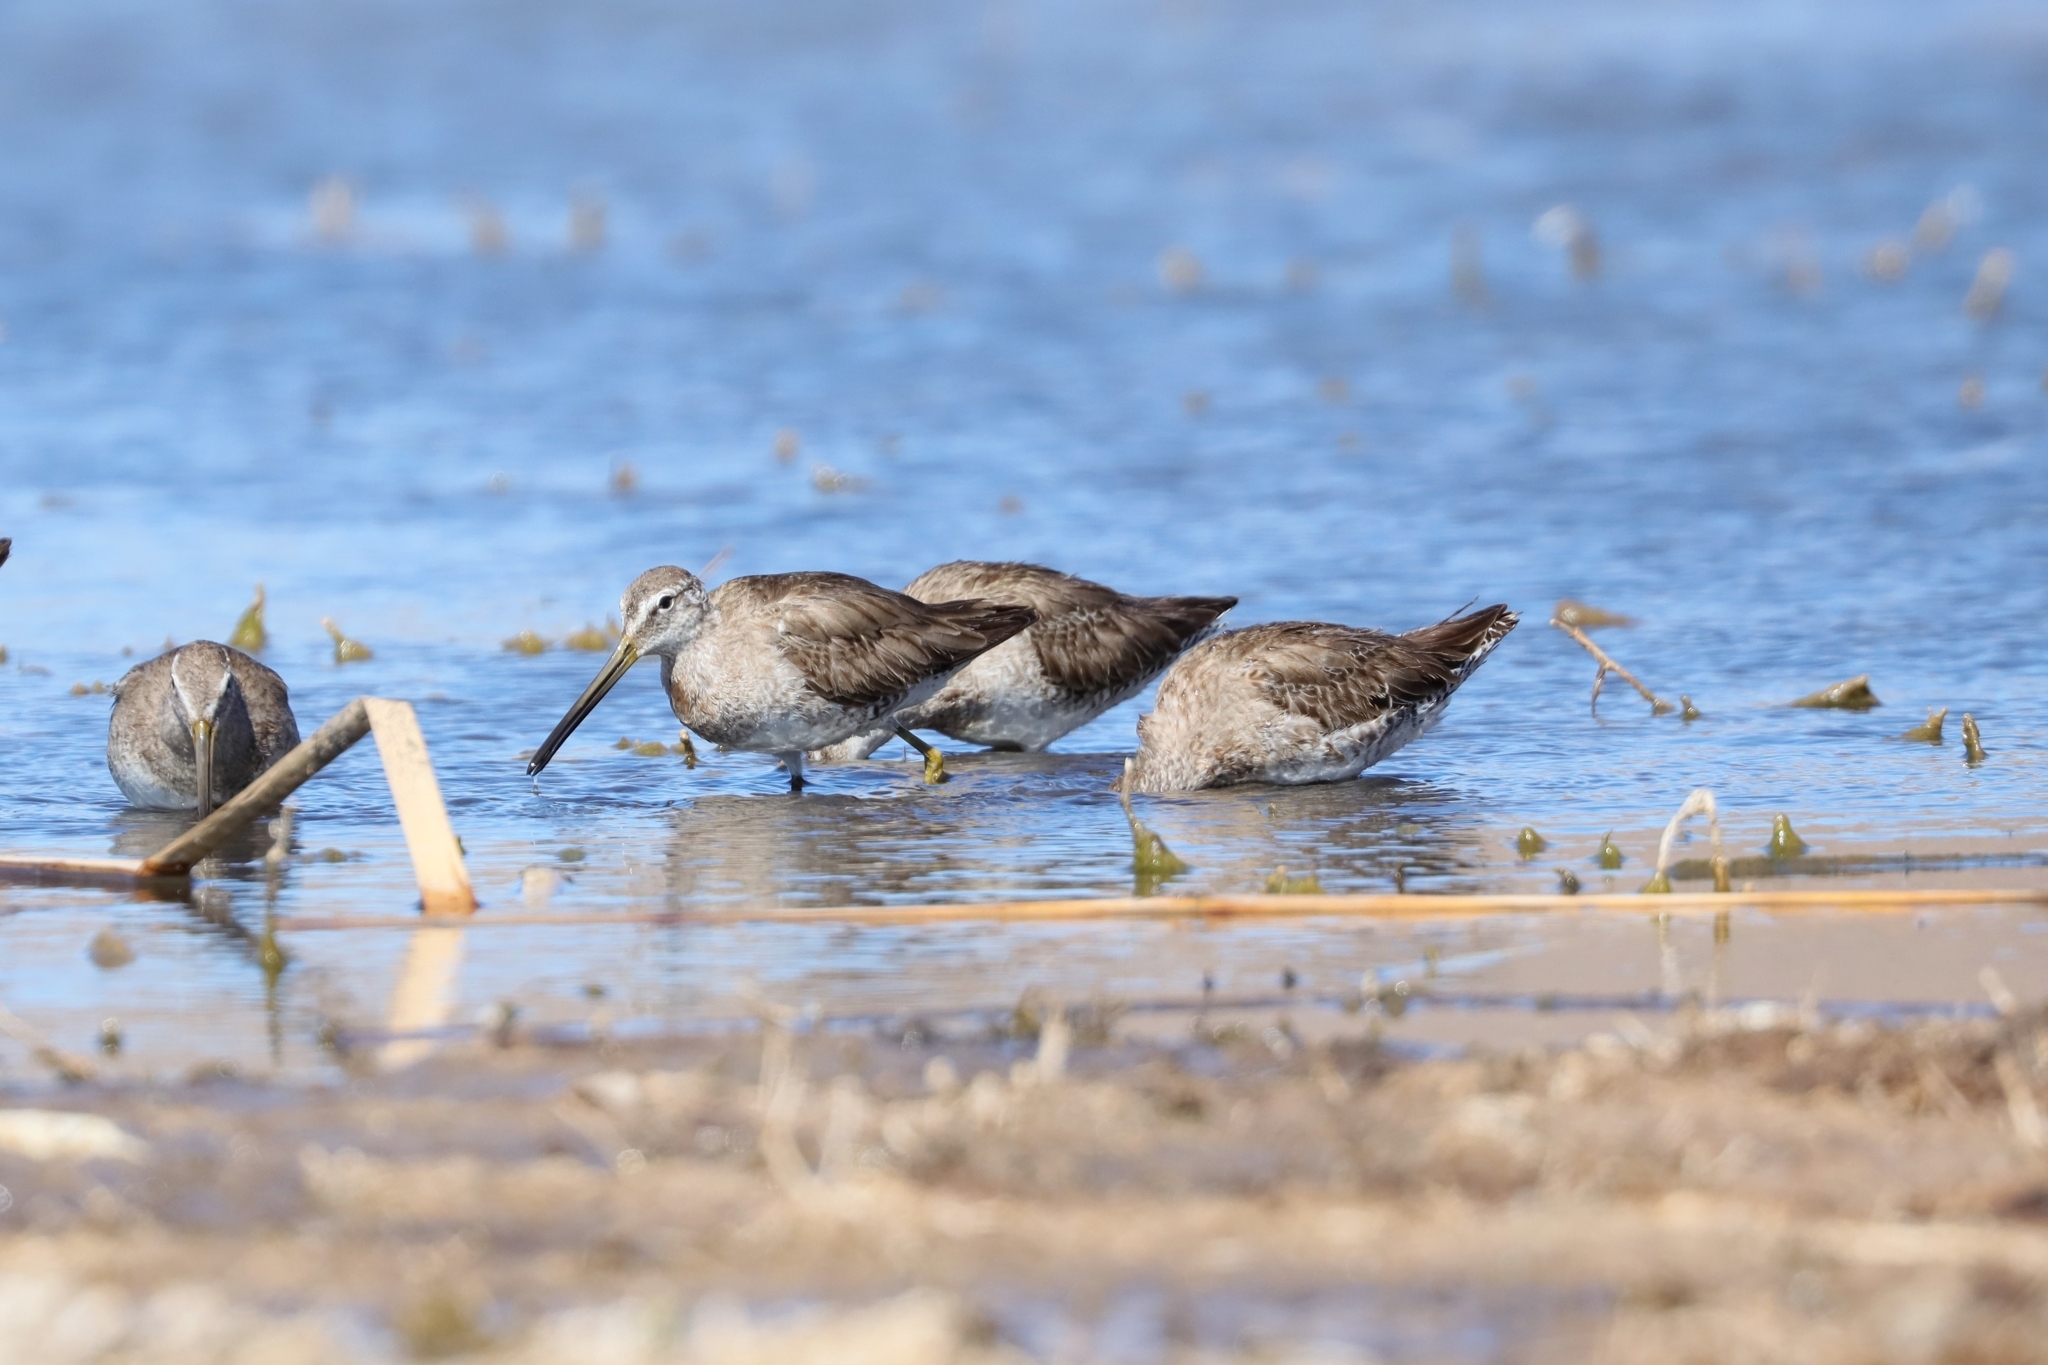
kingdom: Animalia
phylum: Chordata
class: Aves
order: Charadriiformes
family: Scolopacidae
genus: Limnodromus
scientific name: Limnodromus scolopaceus
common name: Long-billed dowitcher
